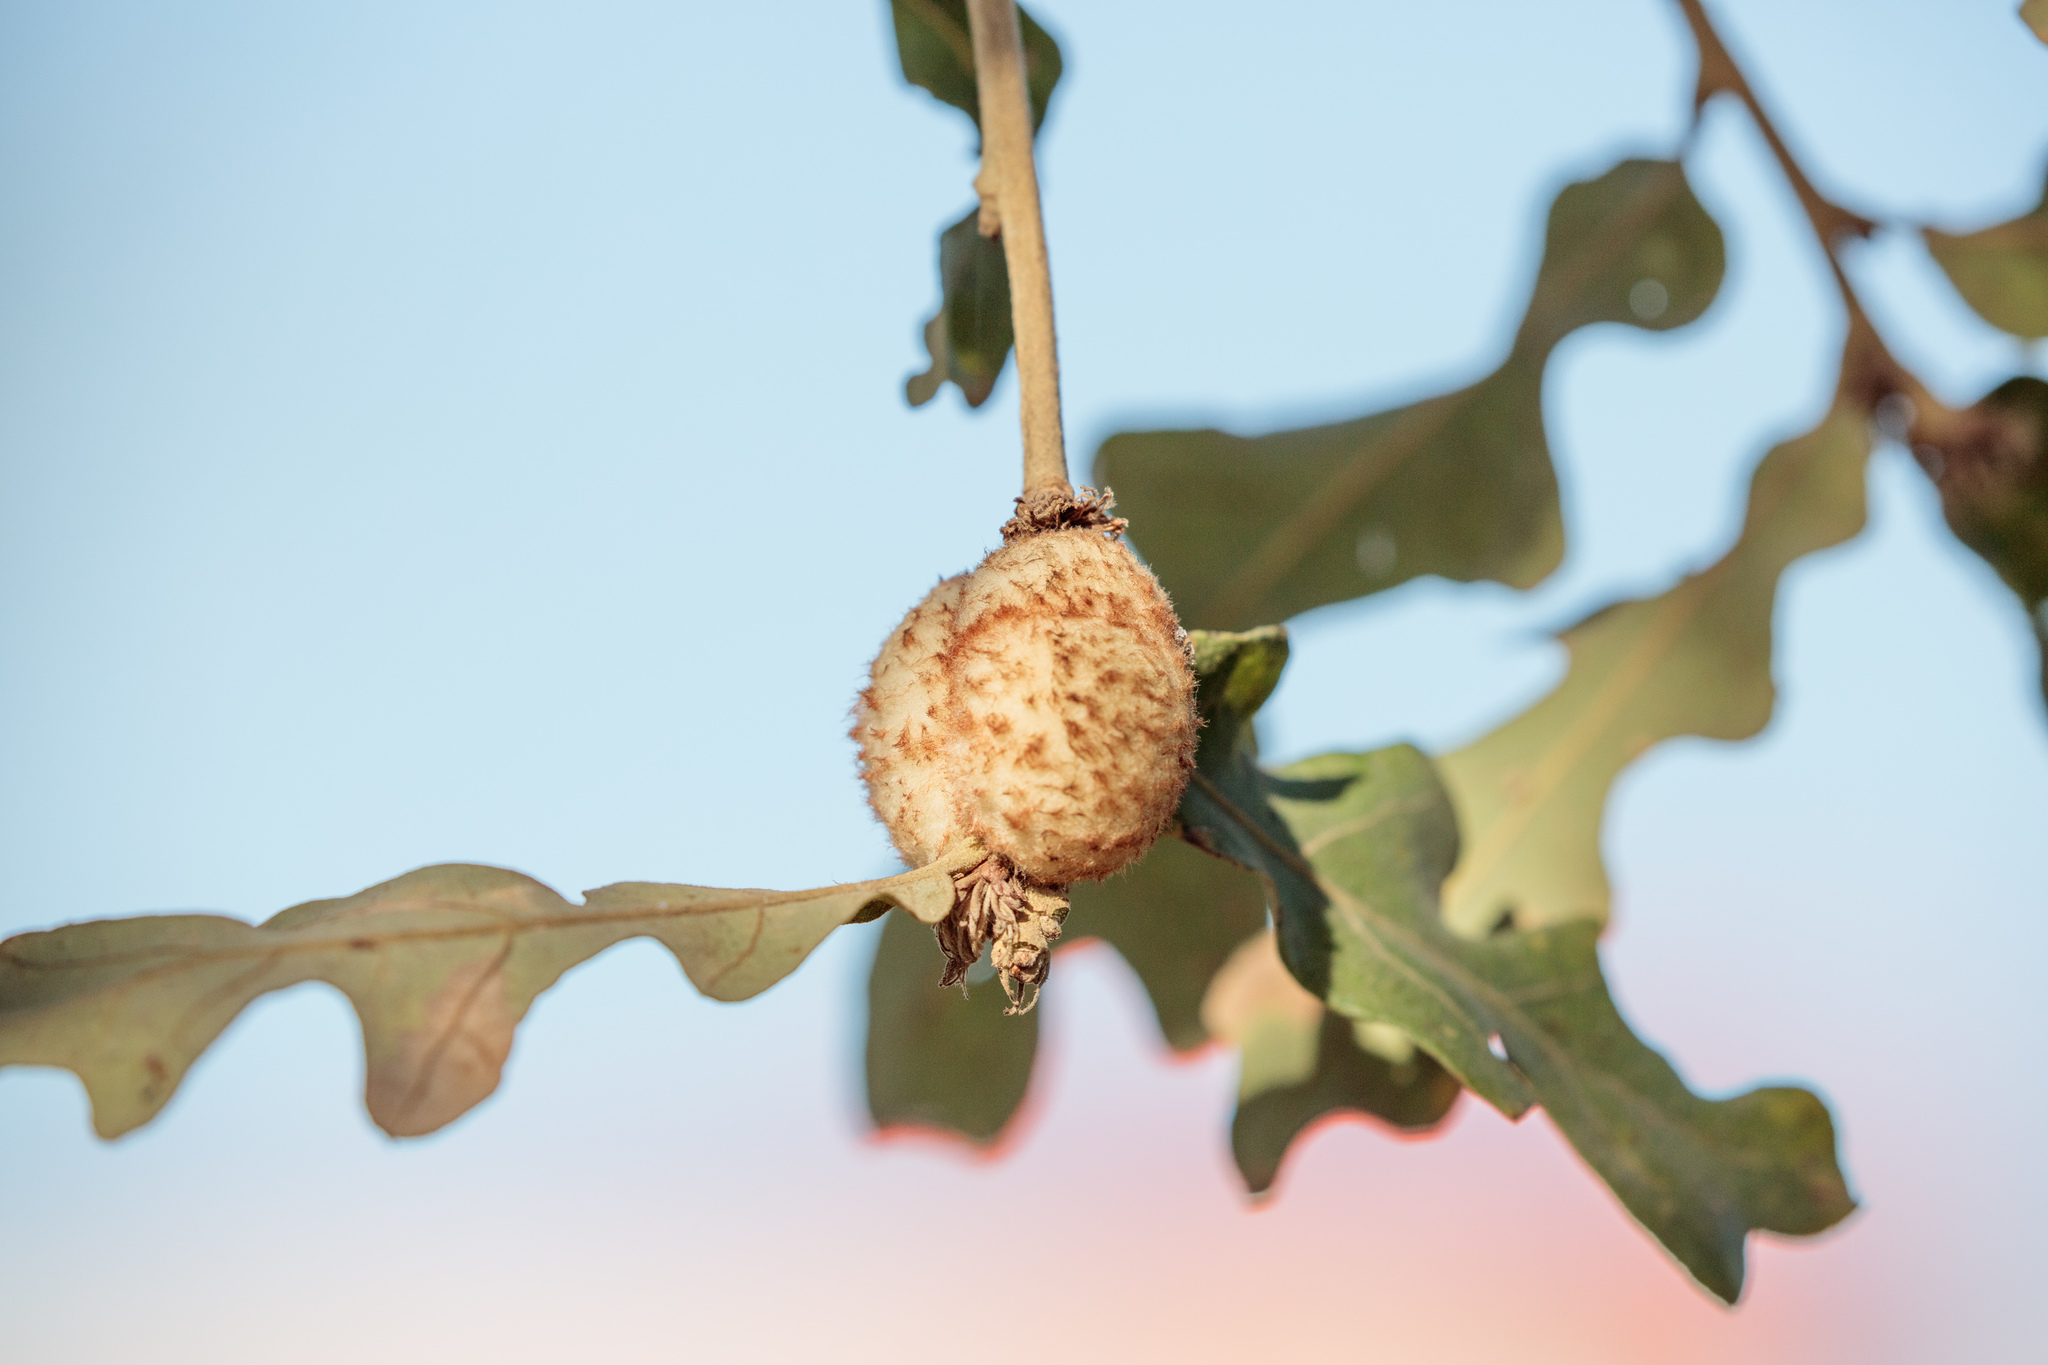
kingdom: Animalia
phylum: Arthropoda
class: Insecta
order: Hymenoptera
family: Cynipidae
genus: Striatoandricus
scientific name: Striatoandricus aciculatus
